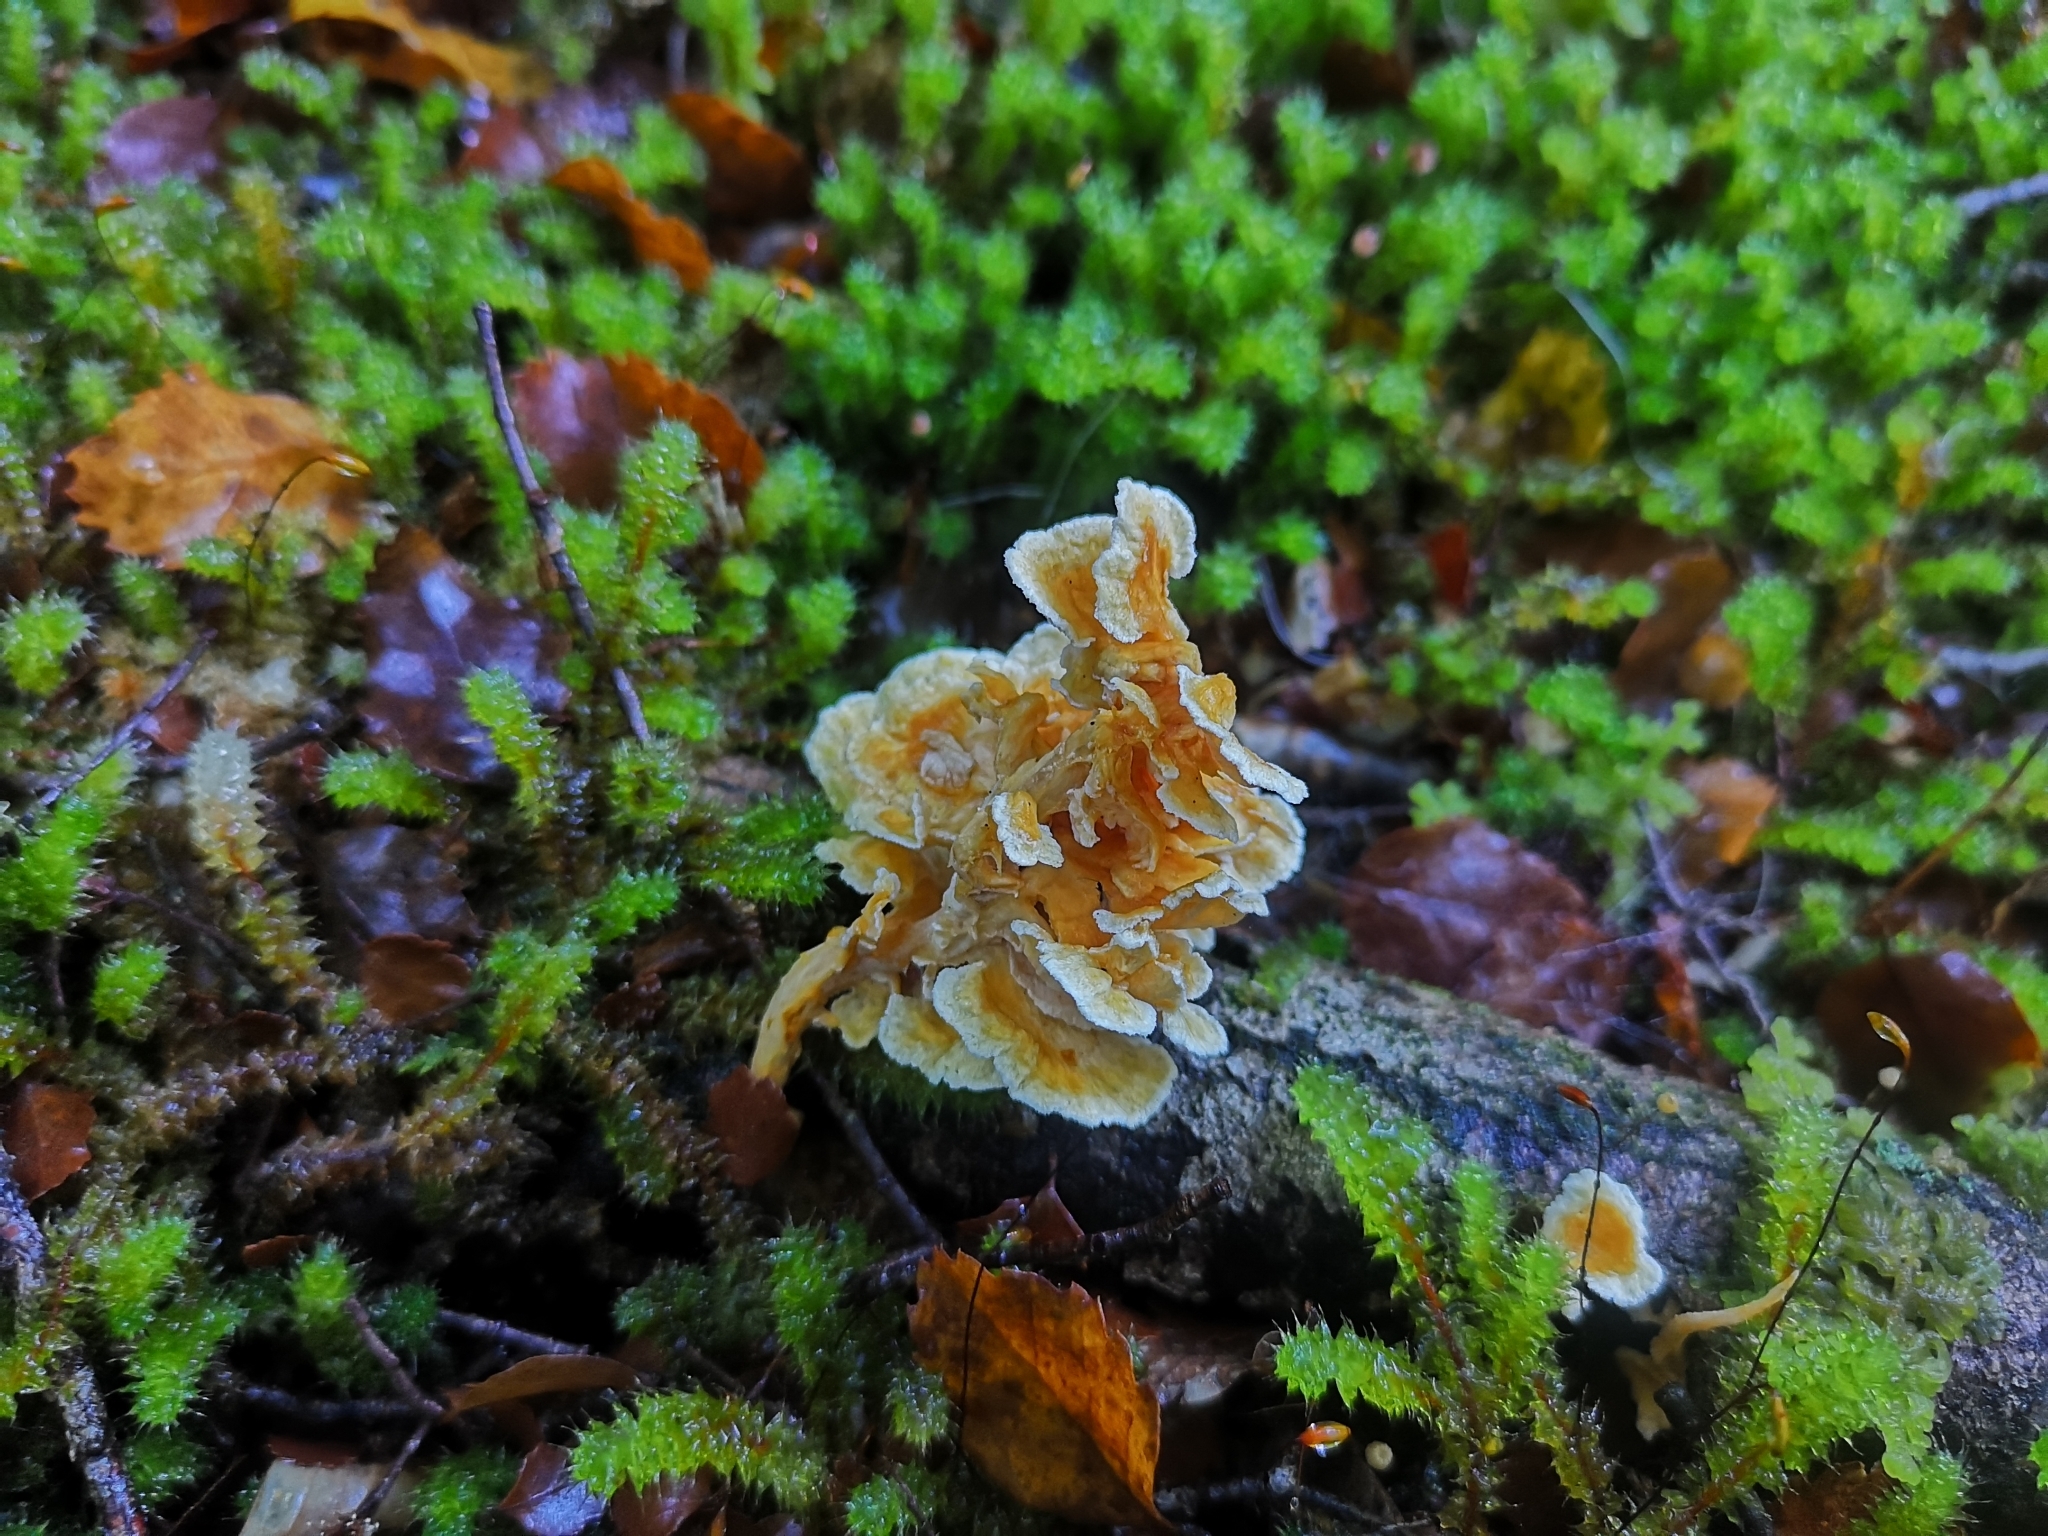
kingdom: Fungi
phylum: Basidiomycota
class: Agaricomycetes
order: Amylocorticiales
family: Amylocorticiaceae
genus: Podoserpula
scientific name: Podoserpula pusio
